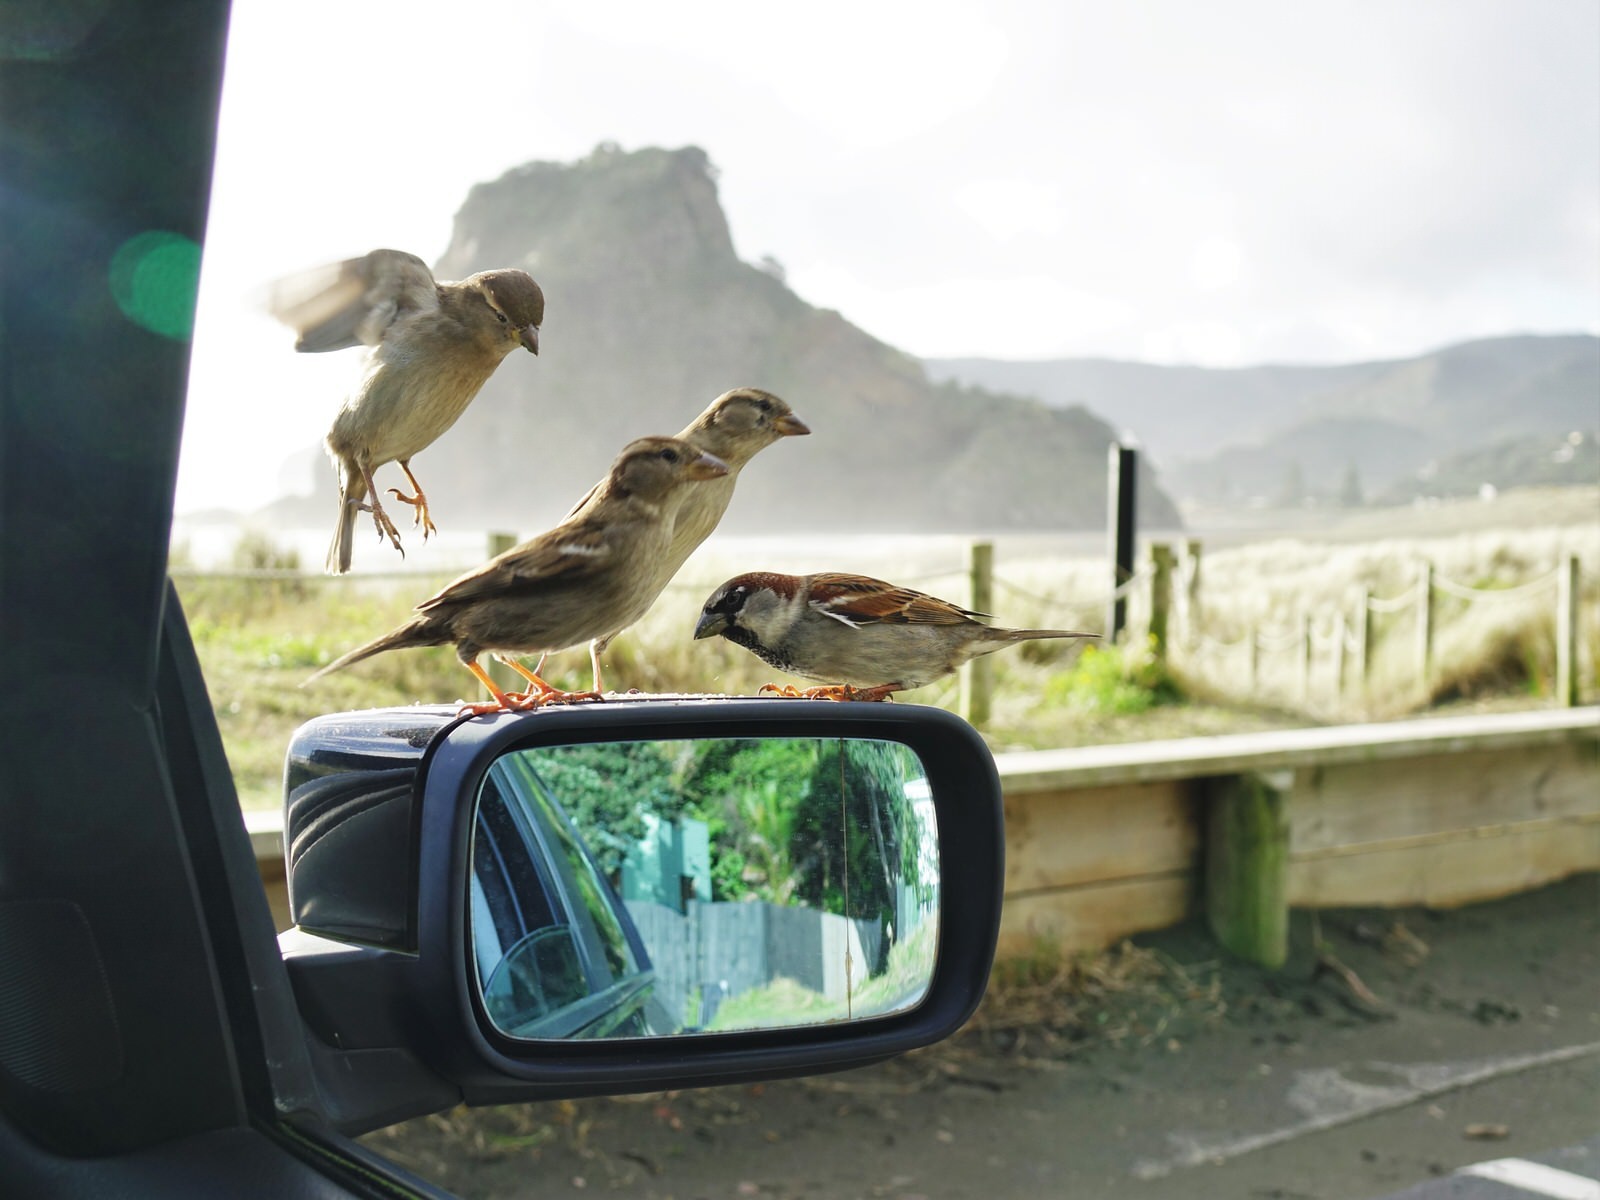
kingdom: Animalia
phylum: Chordata
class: Aves
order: Passeriformes
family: Passeridae
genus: Passer
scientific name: Passer domesticus
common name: House sparrow
